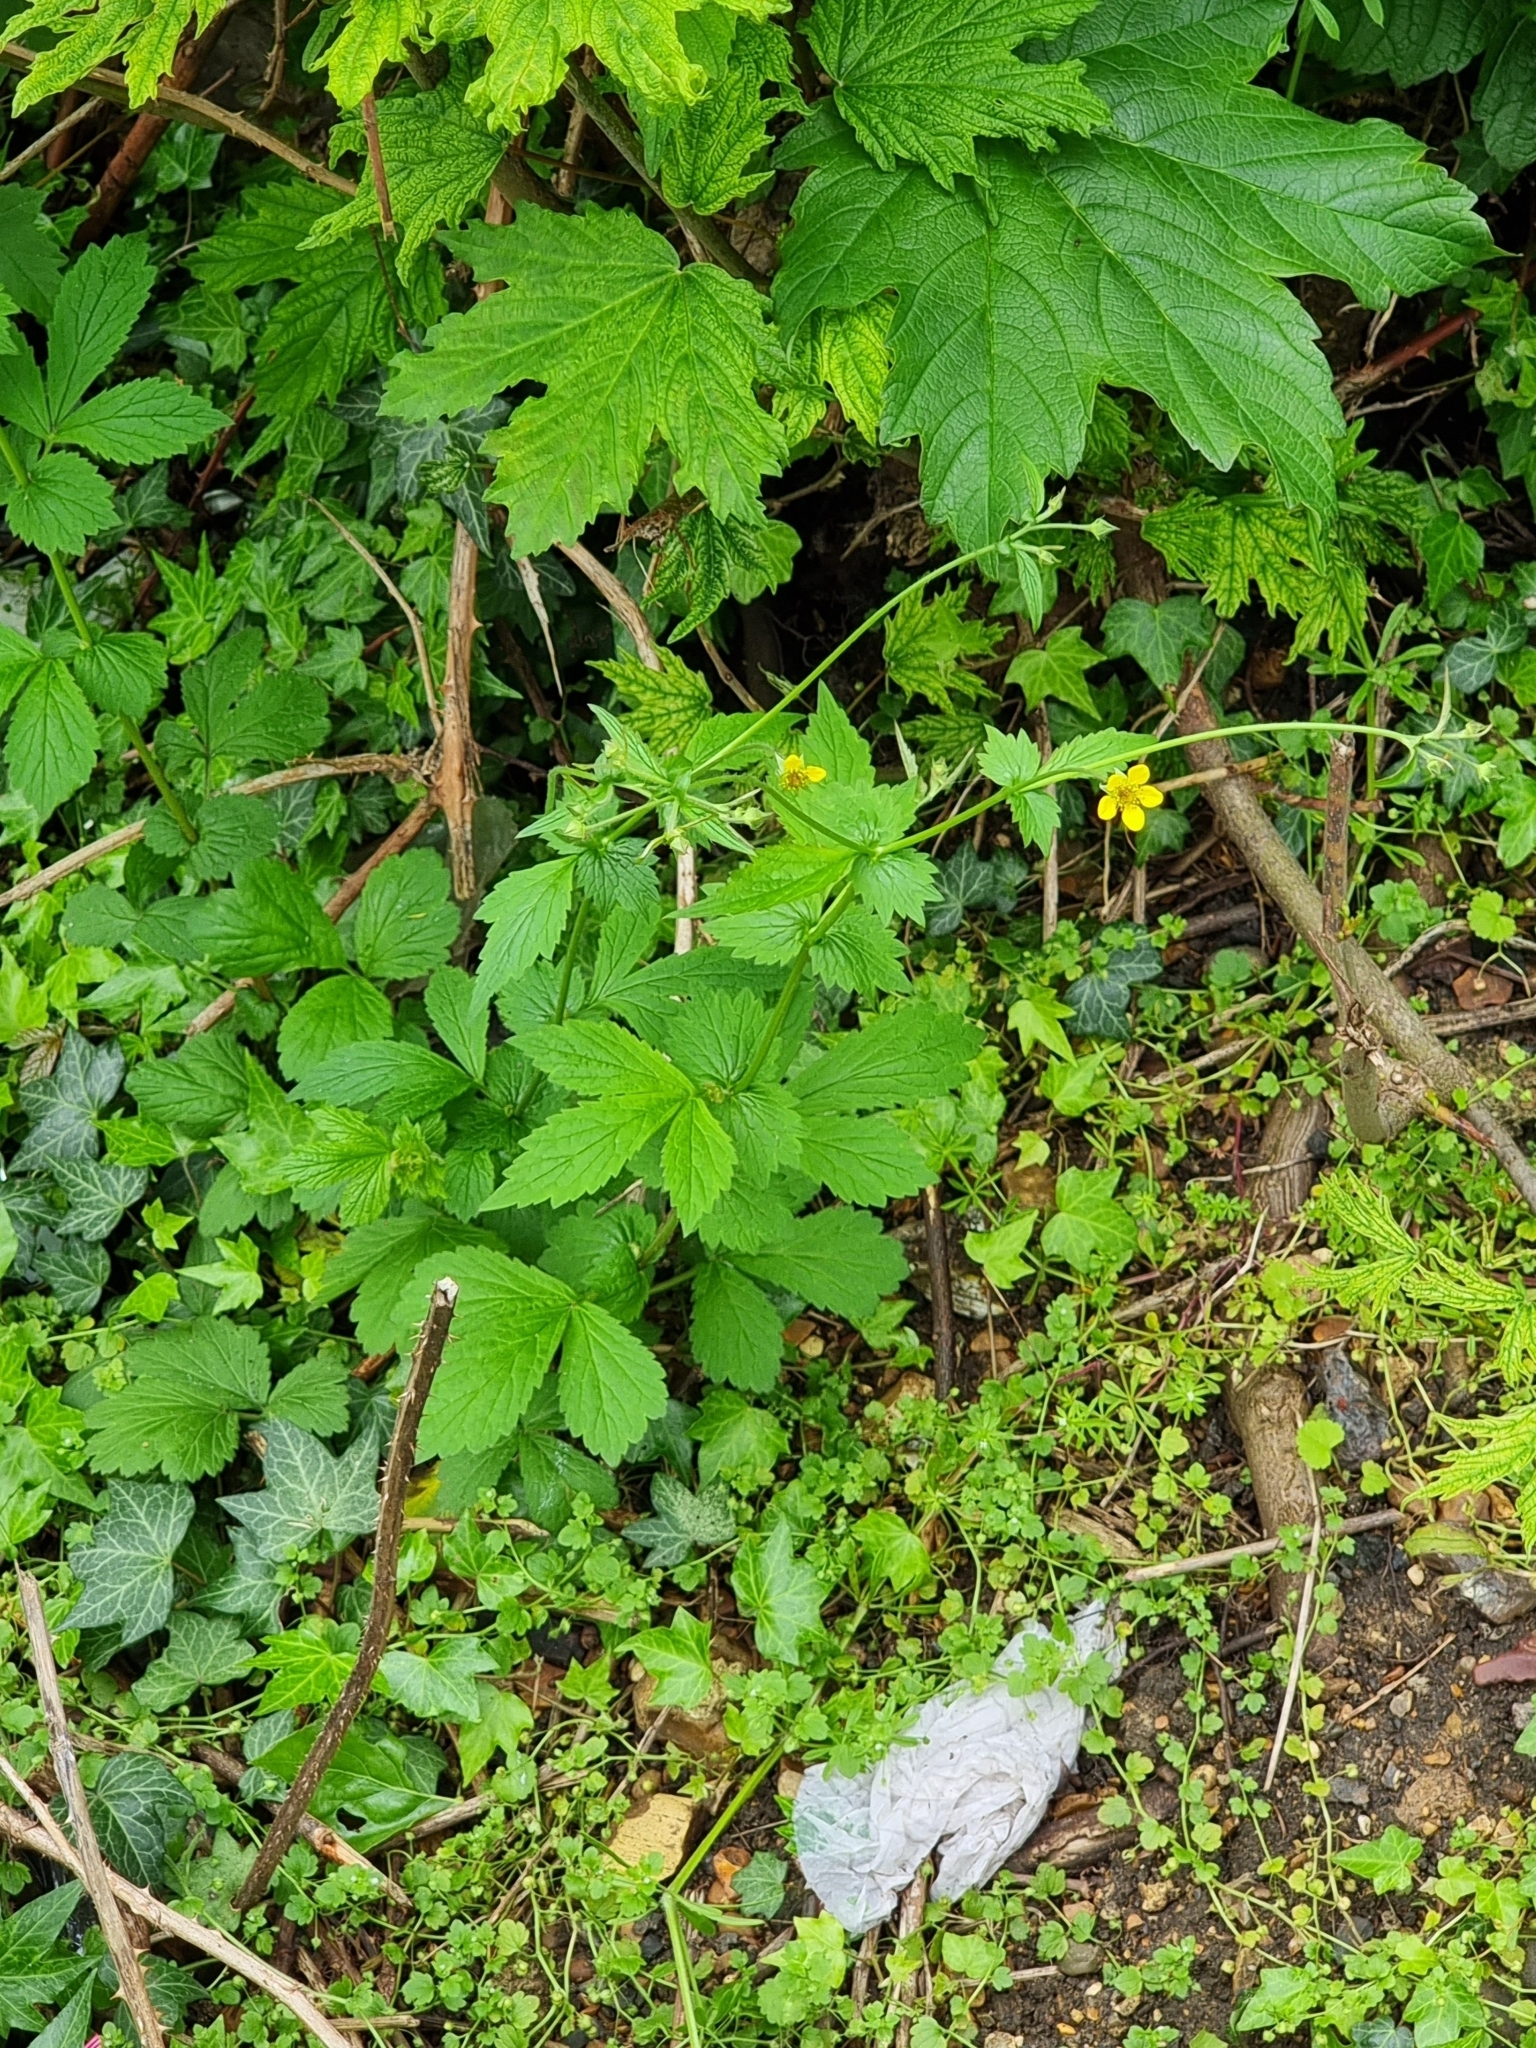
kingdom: Plantae
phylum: Tracheophyta
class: Magnoliopsida
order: Rosales
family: Rosaceae
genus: Geum
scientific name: Geum urbanum
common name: Wood avens
